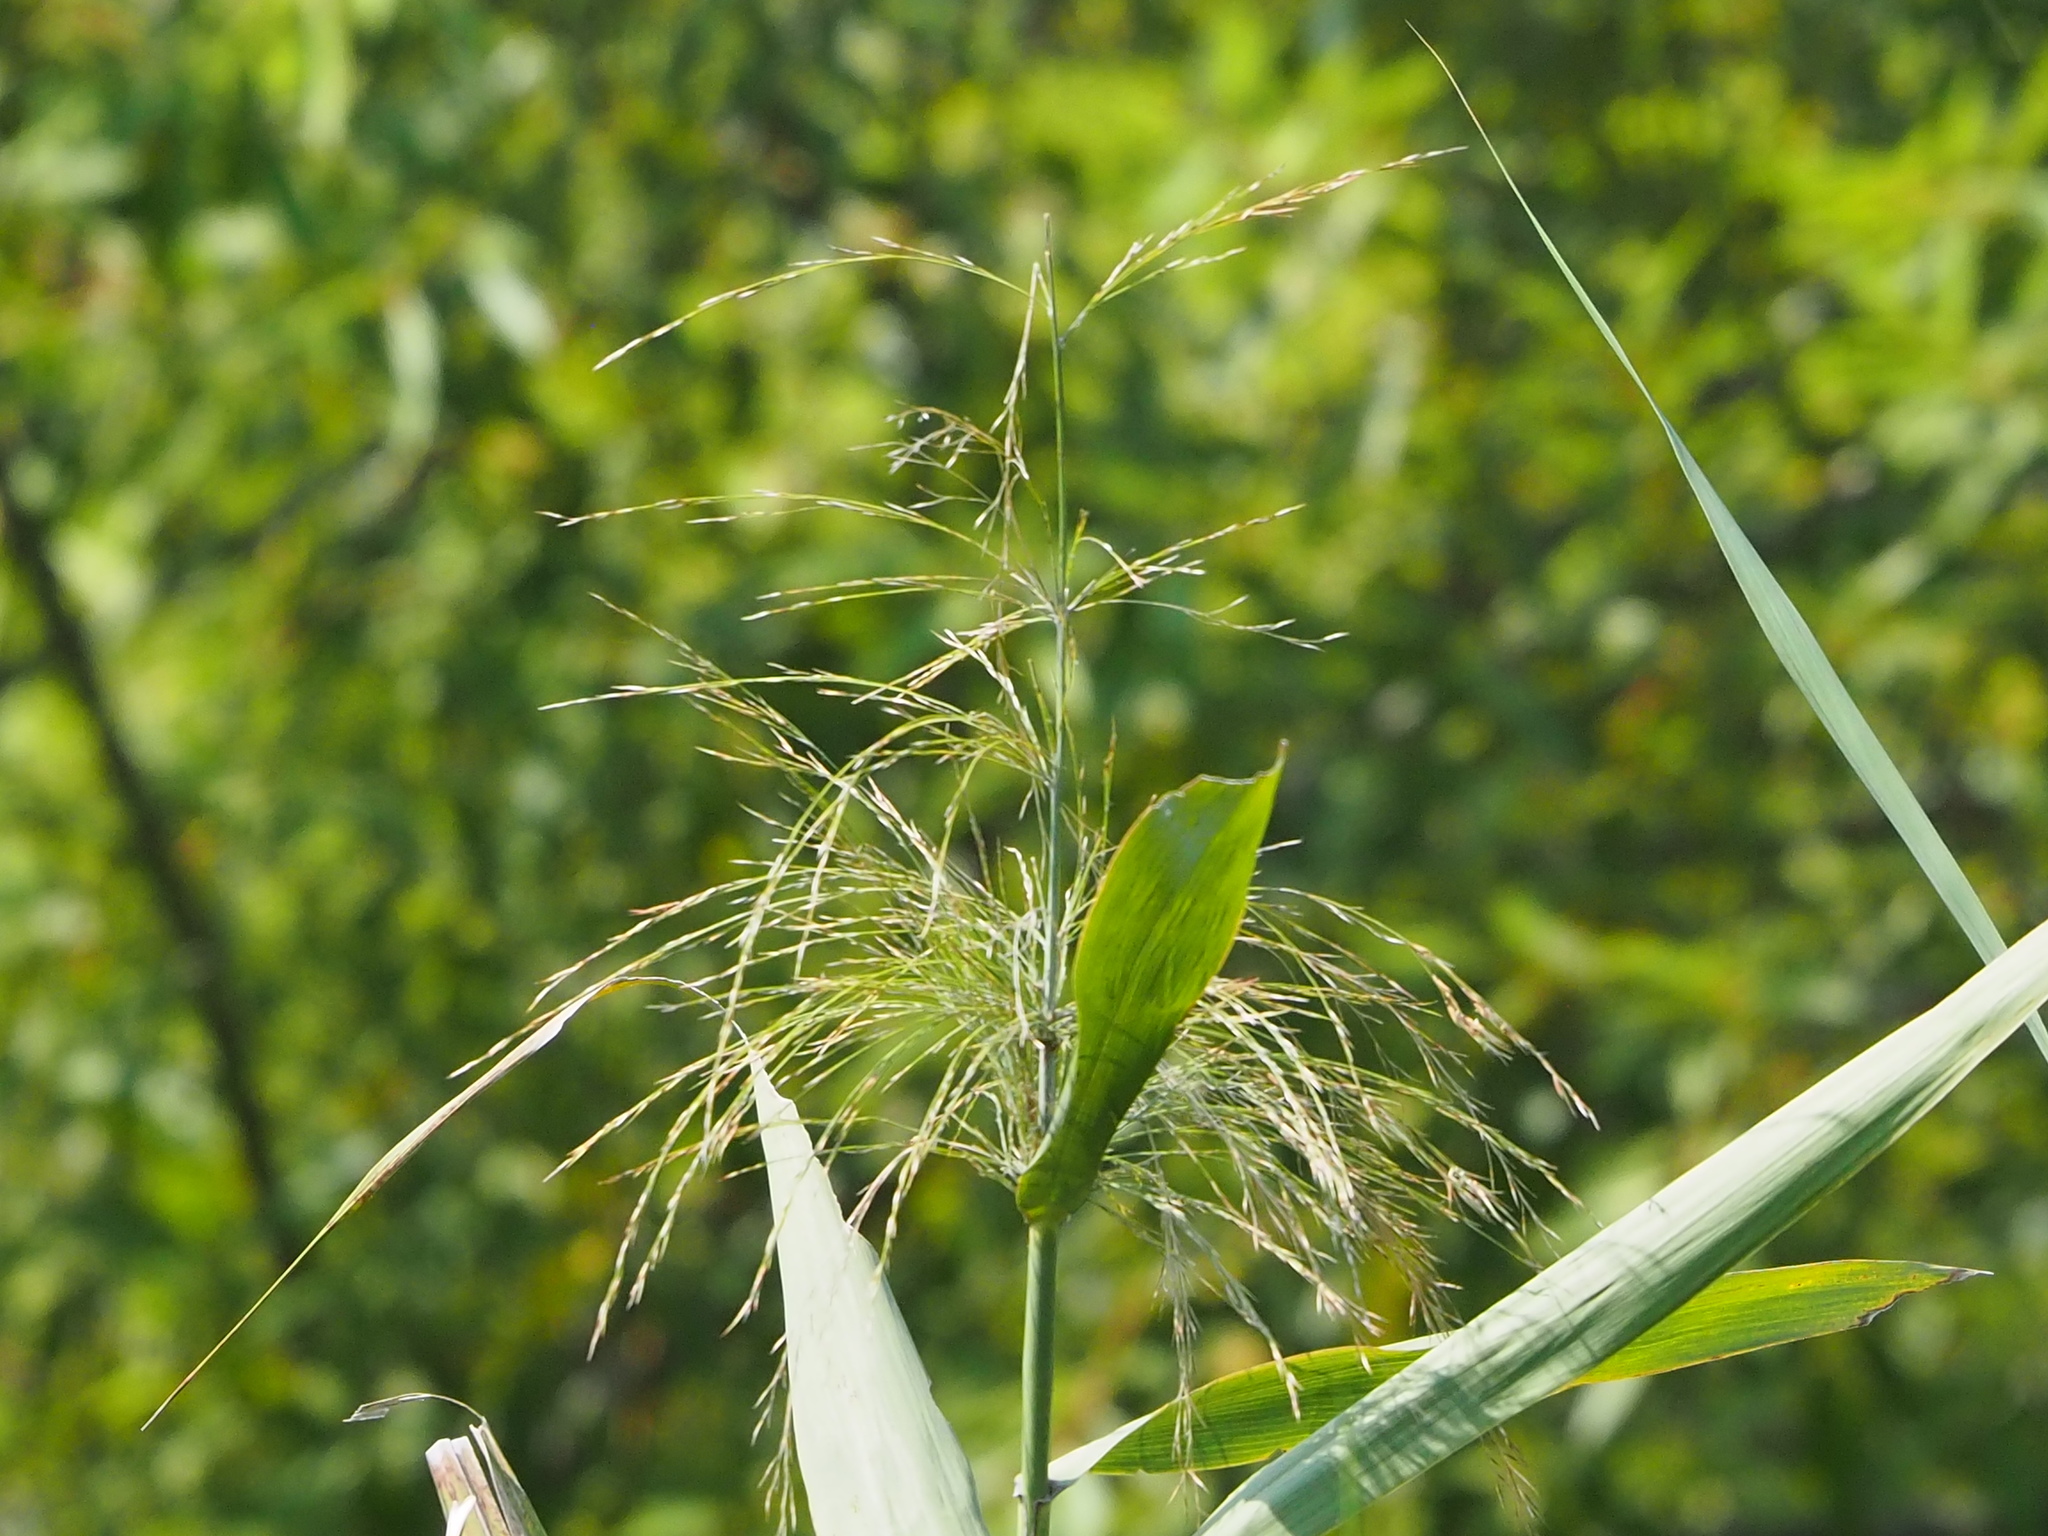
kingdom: Plantae
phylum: Tracheophyta
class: Liliopsida
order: Poales
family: Poaceae
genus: Phragmites
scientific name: Phragmites karka
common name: Tropical reed
